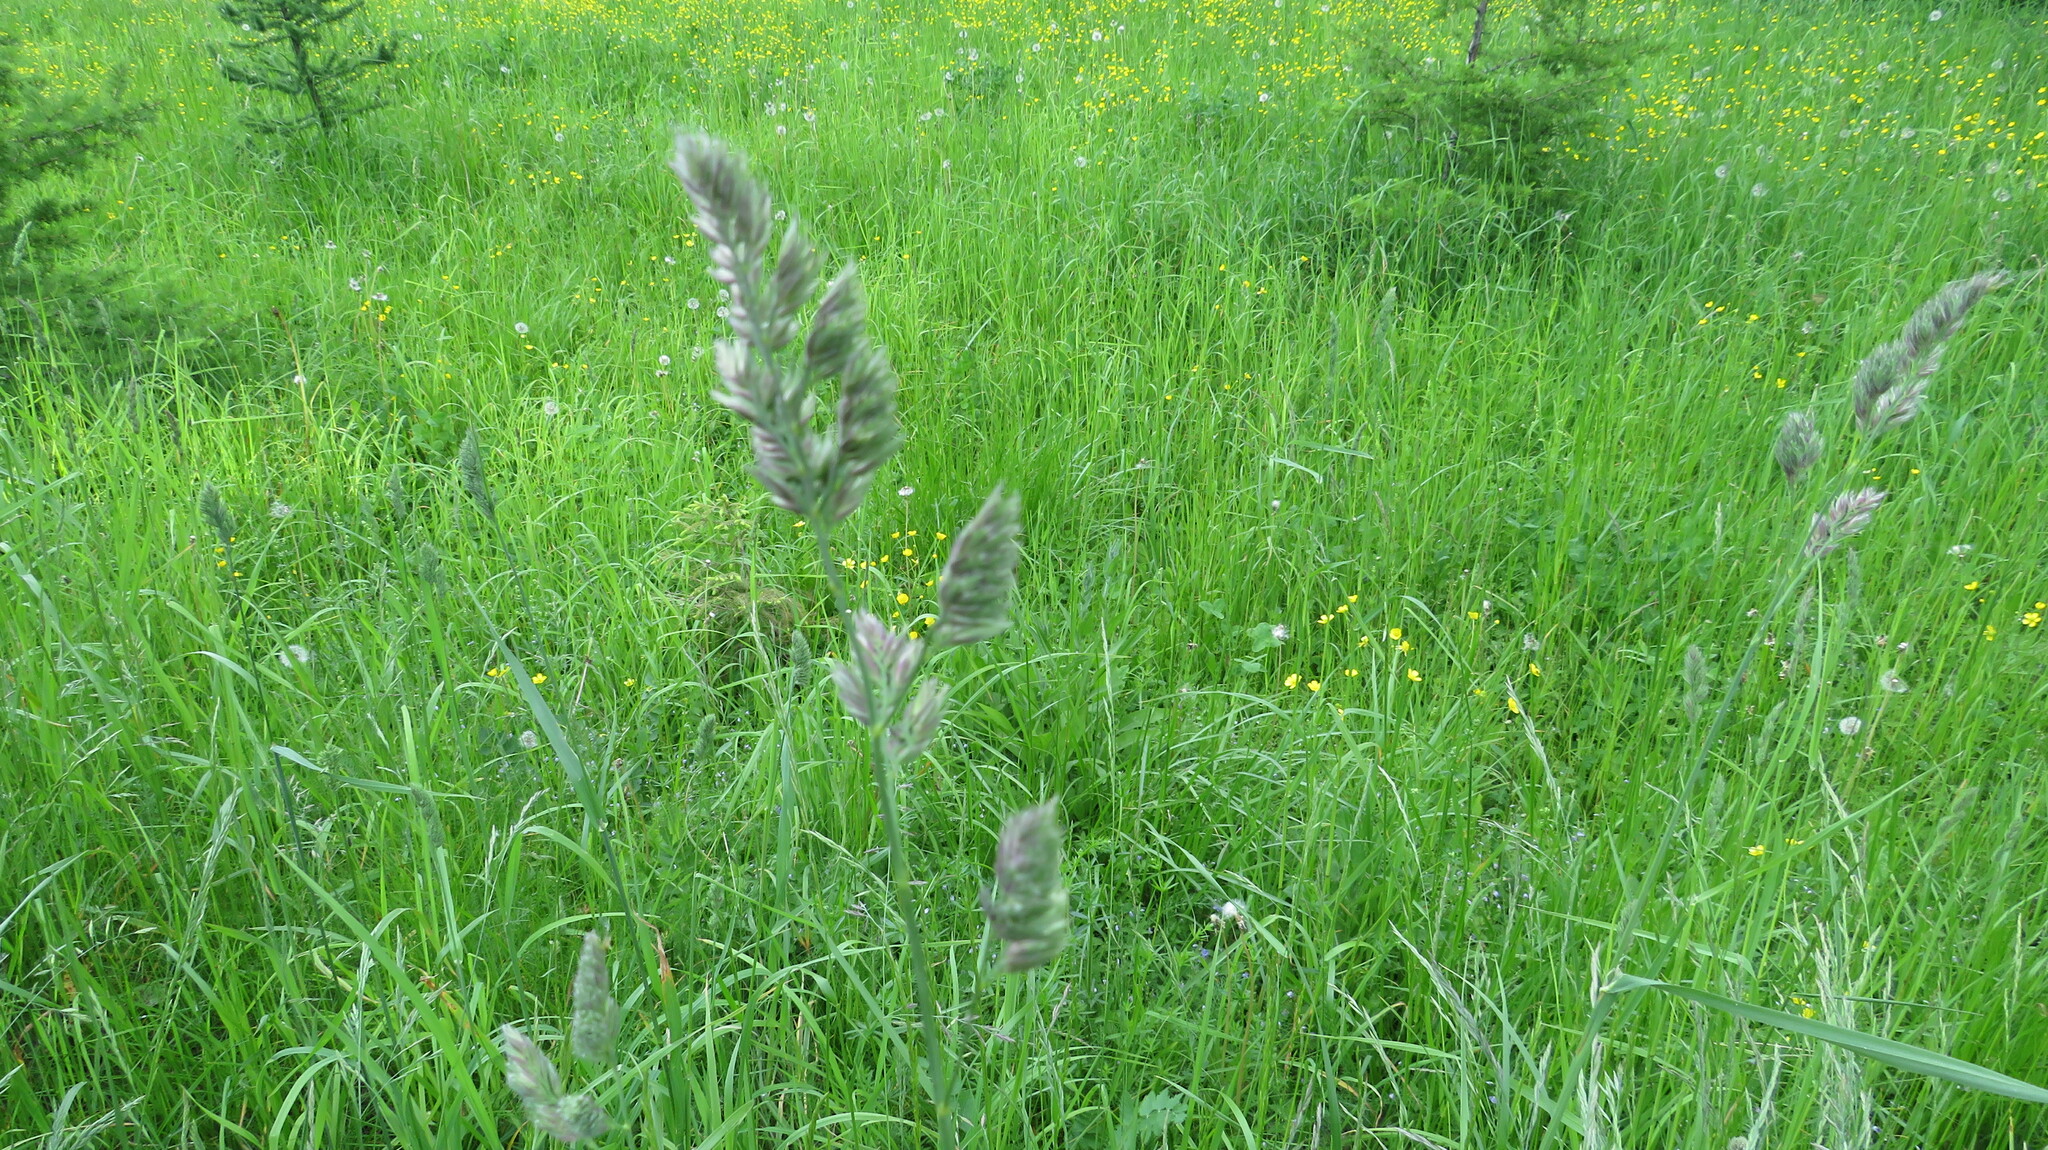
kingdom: Plantae
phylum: Tracheophyta
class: Liliopsida
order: Poales
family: Poaceae
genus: Dactylis
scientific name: Dactylis glomerata
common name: Orchardgrass
